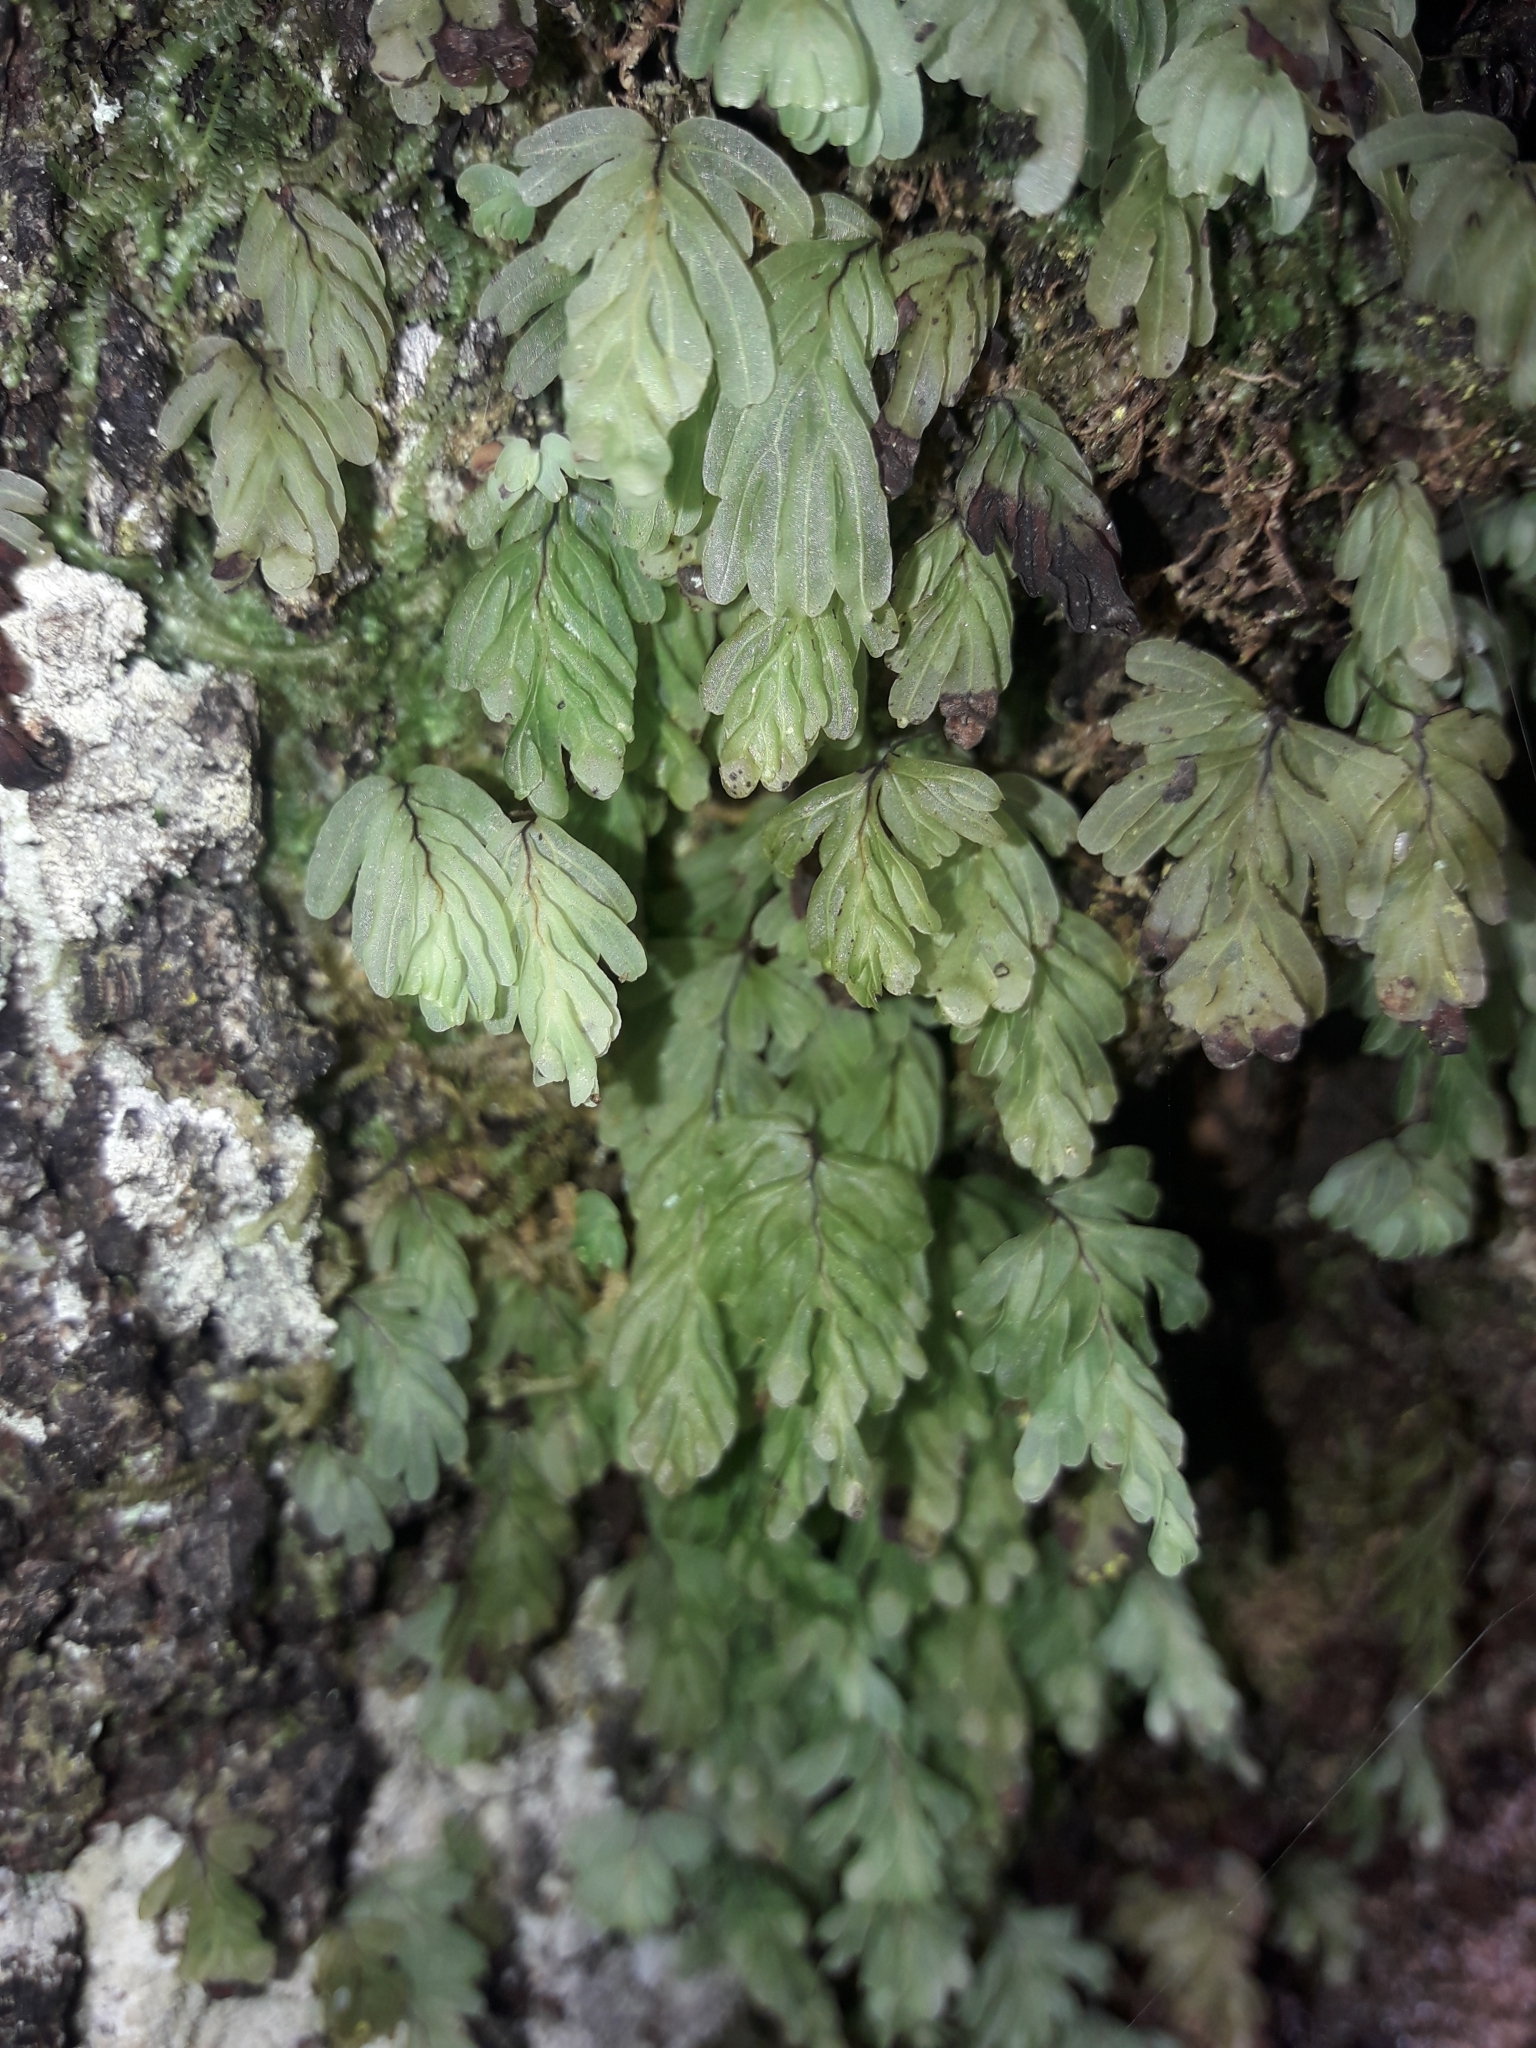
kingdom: Plantae
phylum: Tracheophyta
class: Polypodiopsida
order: Hymenophyllales
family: Hymenophyllaceae
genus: Hymenophyllum
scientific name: Hymenophyllum rarum
